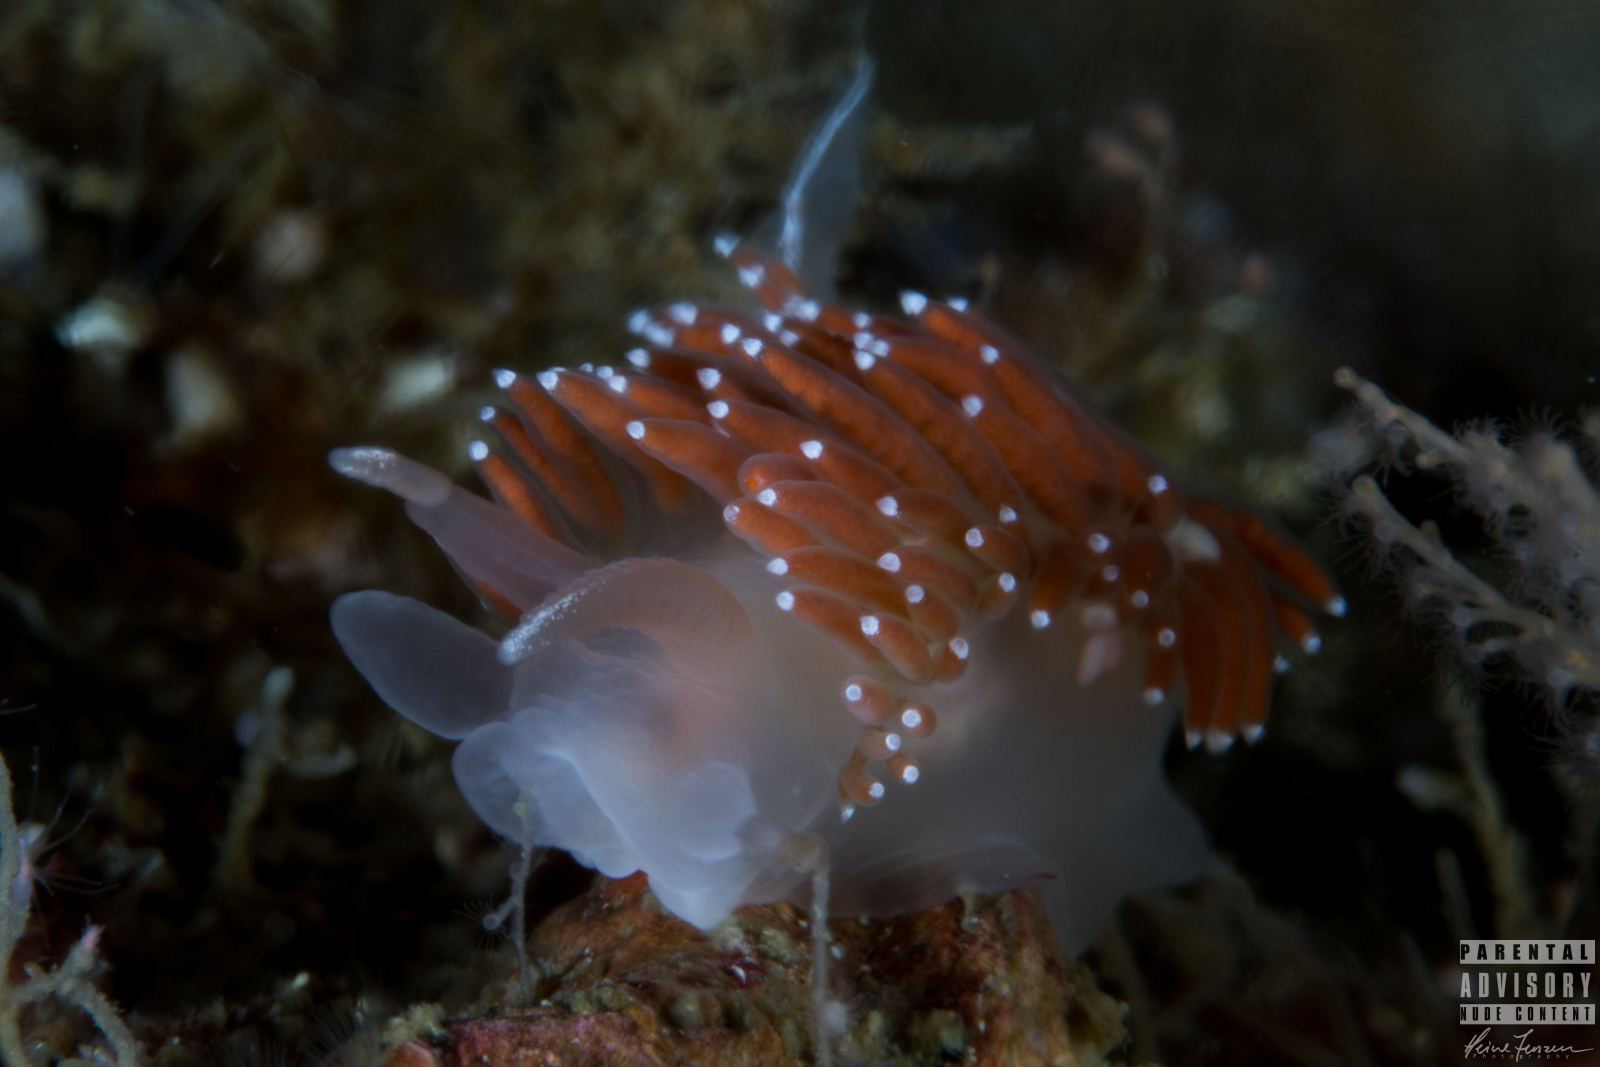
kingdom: Animalia
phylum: Mollusca
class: Gastropoda
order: Nudibranchia
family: Coryphellidae
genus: Coryphella
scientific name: Coryphella verrucosa
